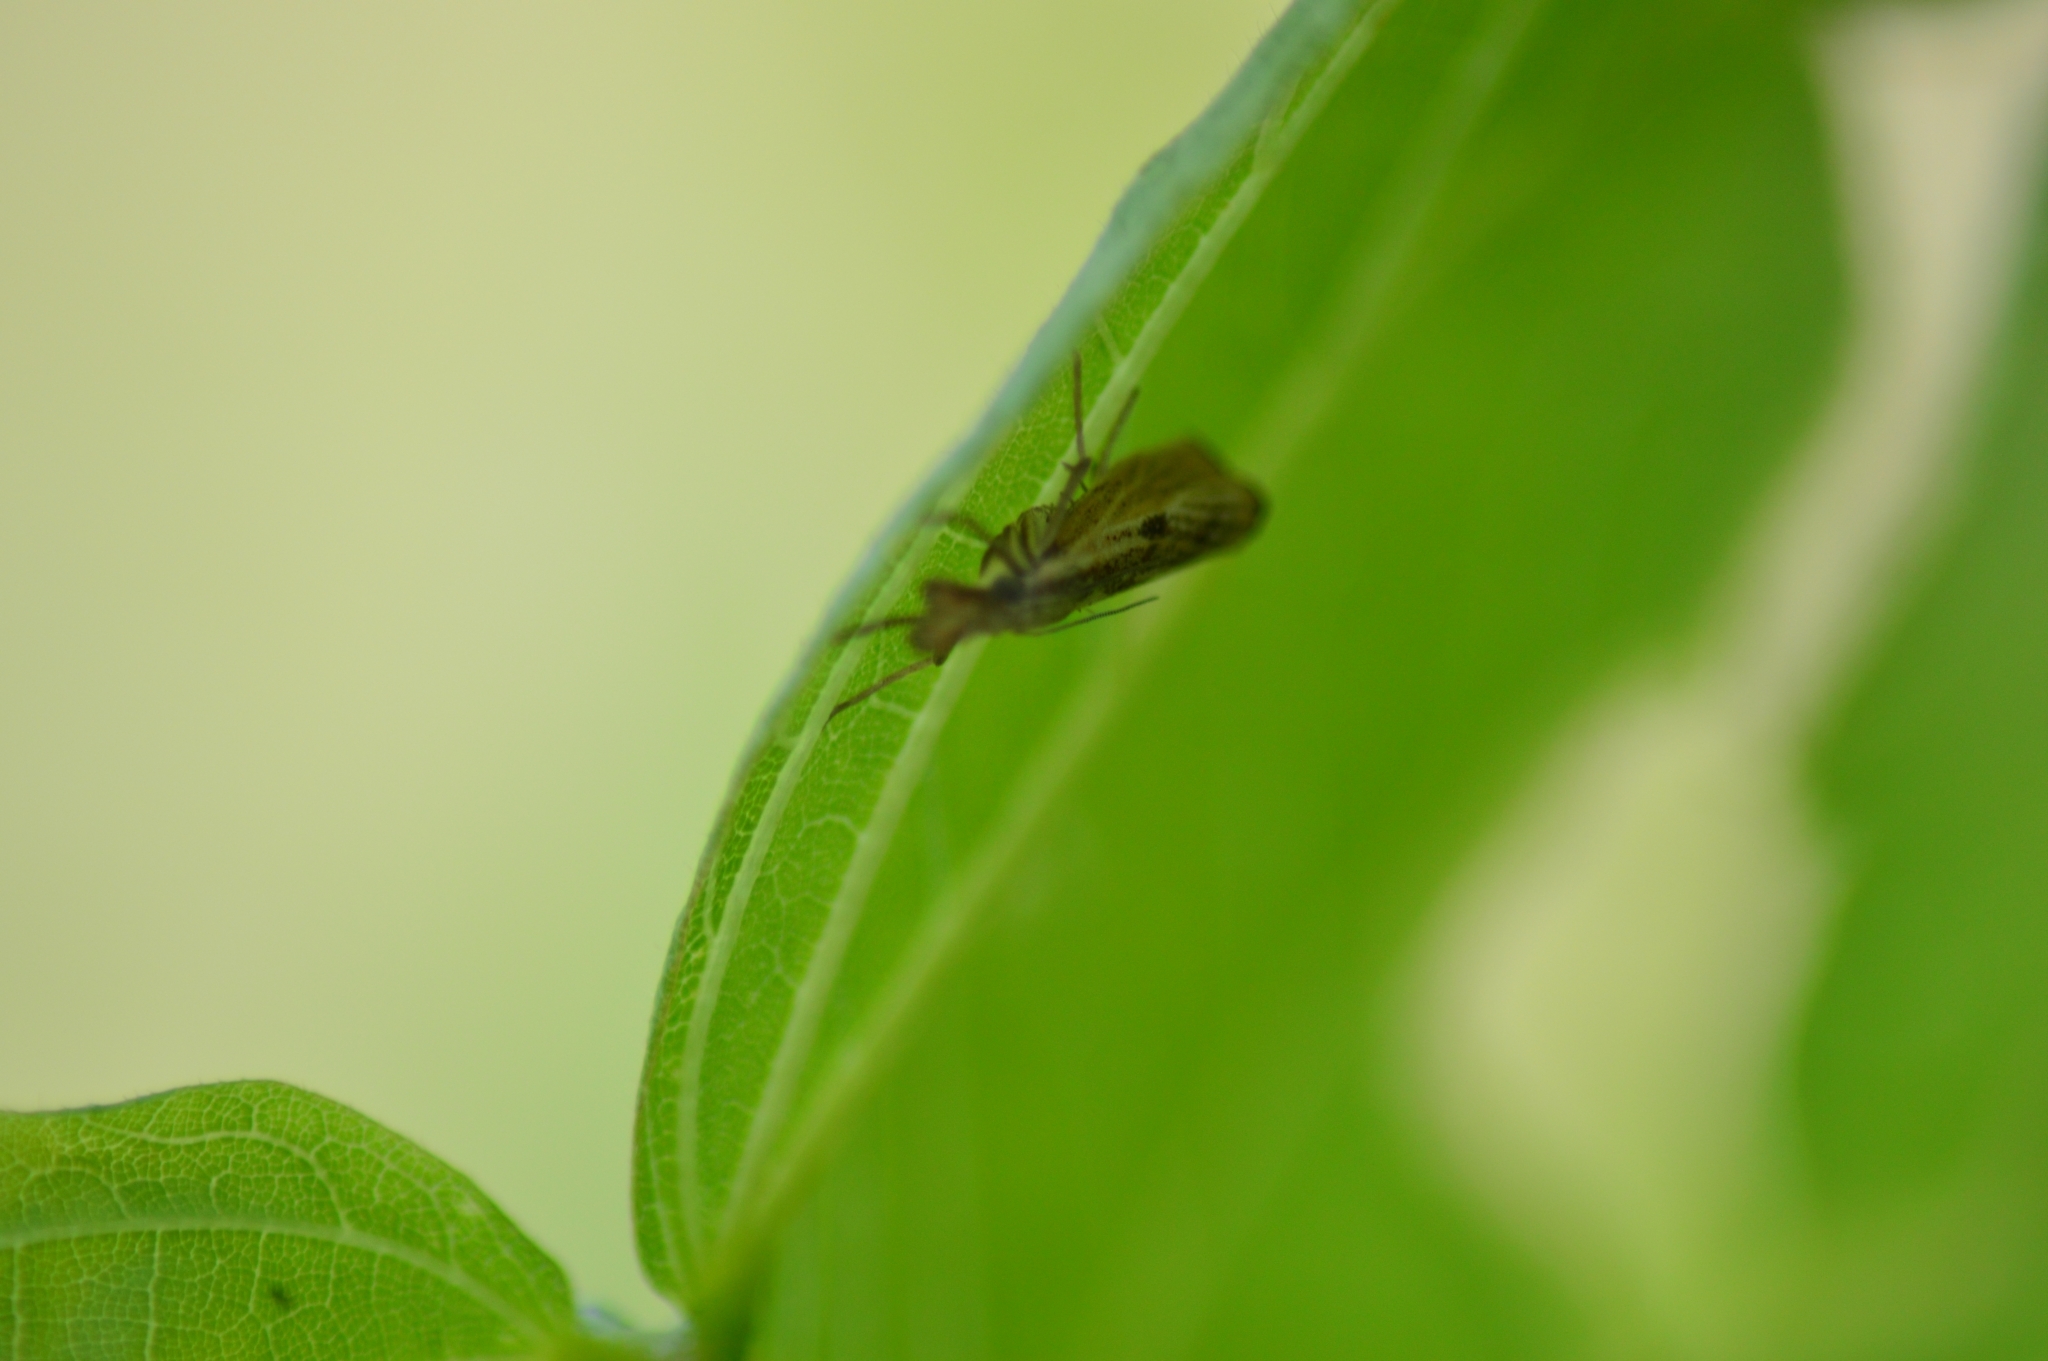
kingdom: Animalia
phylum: Arthropoda
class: Insecta
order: Lepidoptera
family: Crambidae
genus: Agriphila
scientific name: Agriphila geniculea
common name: Elbow-stripe grass-veneer
